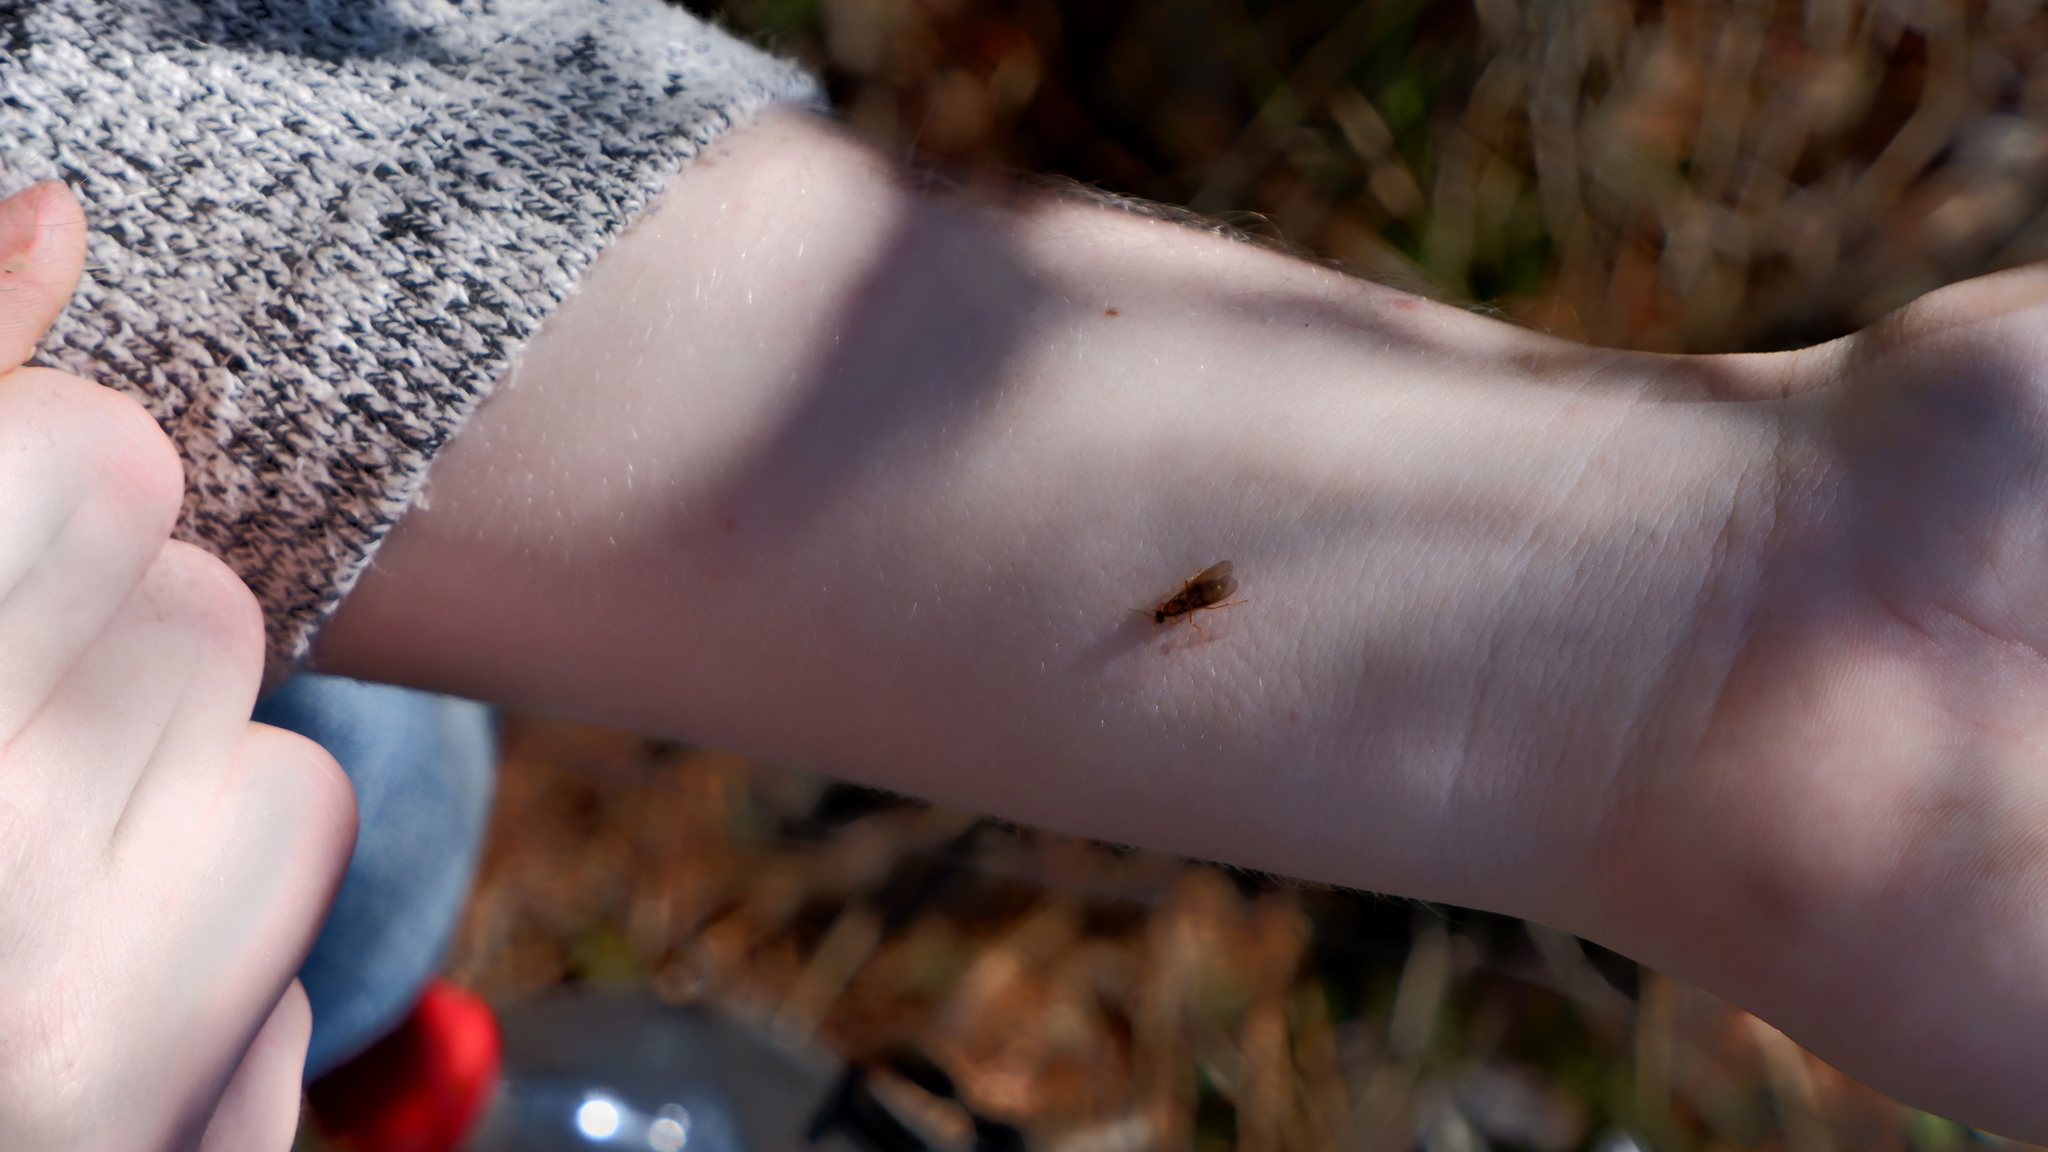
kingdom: Animalia
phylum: Arthropoda
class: Insecta
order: Hymenoptera
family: Formicidae
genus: Prenolepis
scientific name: Prenolepis imparis
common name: Small honey ant
